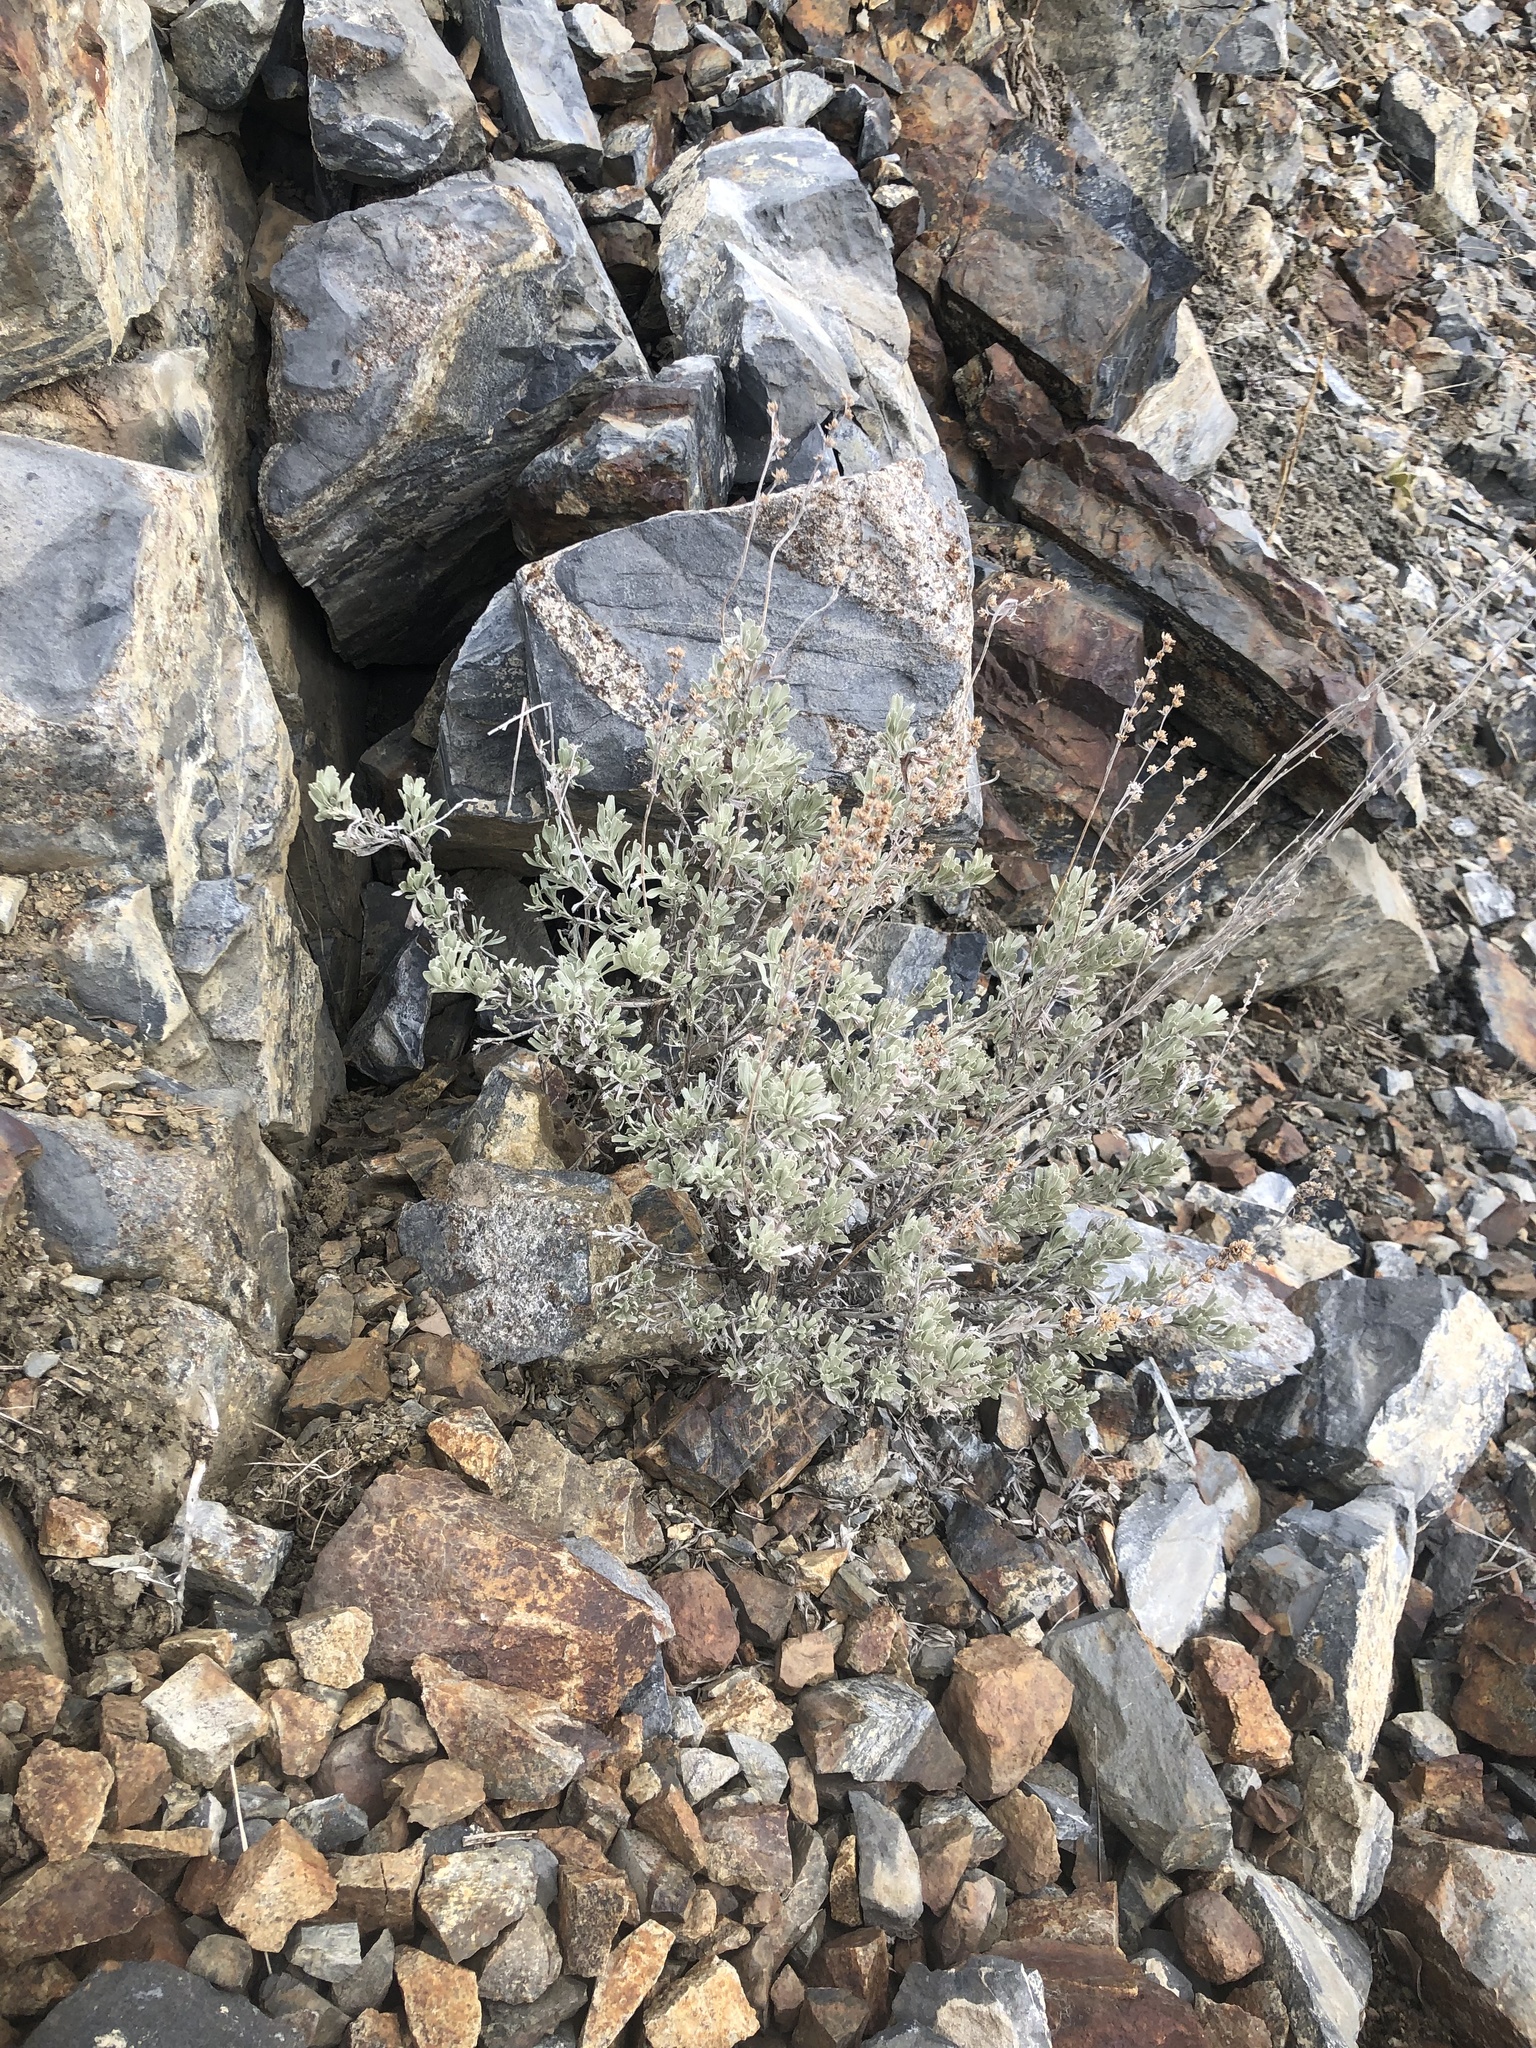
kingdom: Plantae
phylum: Tracheophyta
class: Magnoliopsida
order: Asterales
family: Asteraceae
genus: Artemisia
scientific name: Artemisia tridentata
